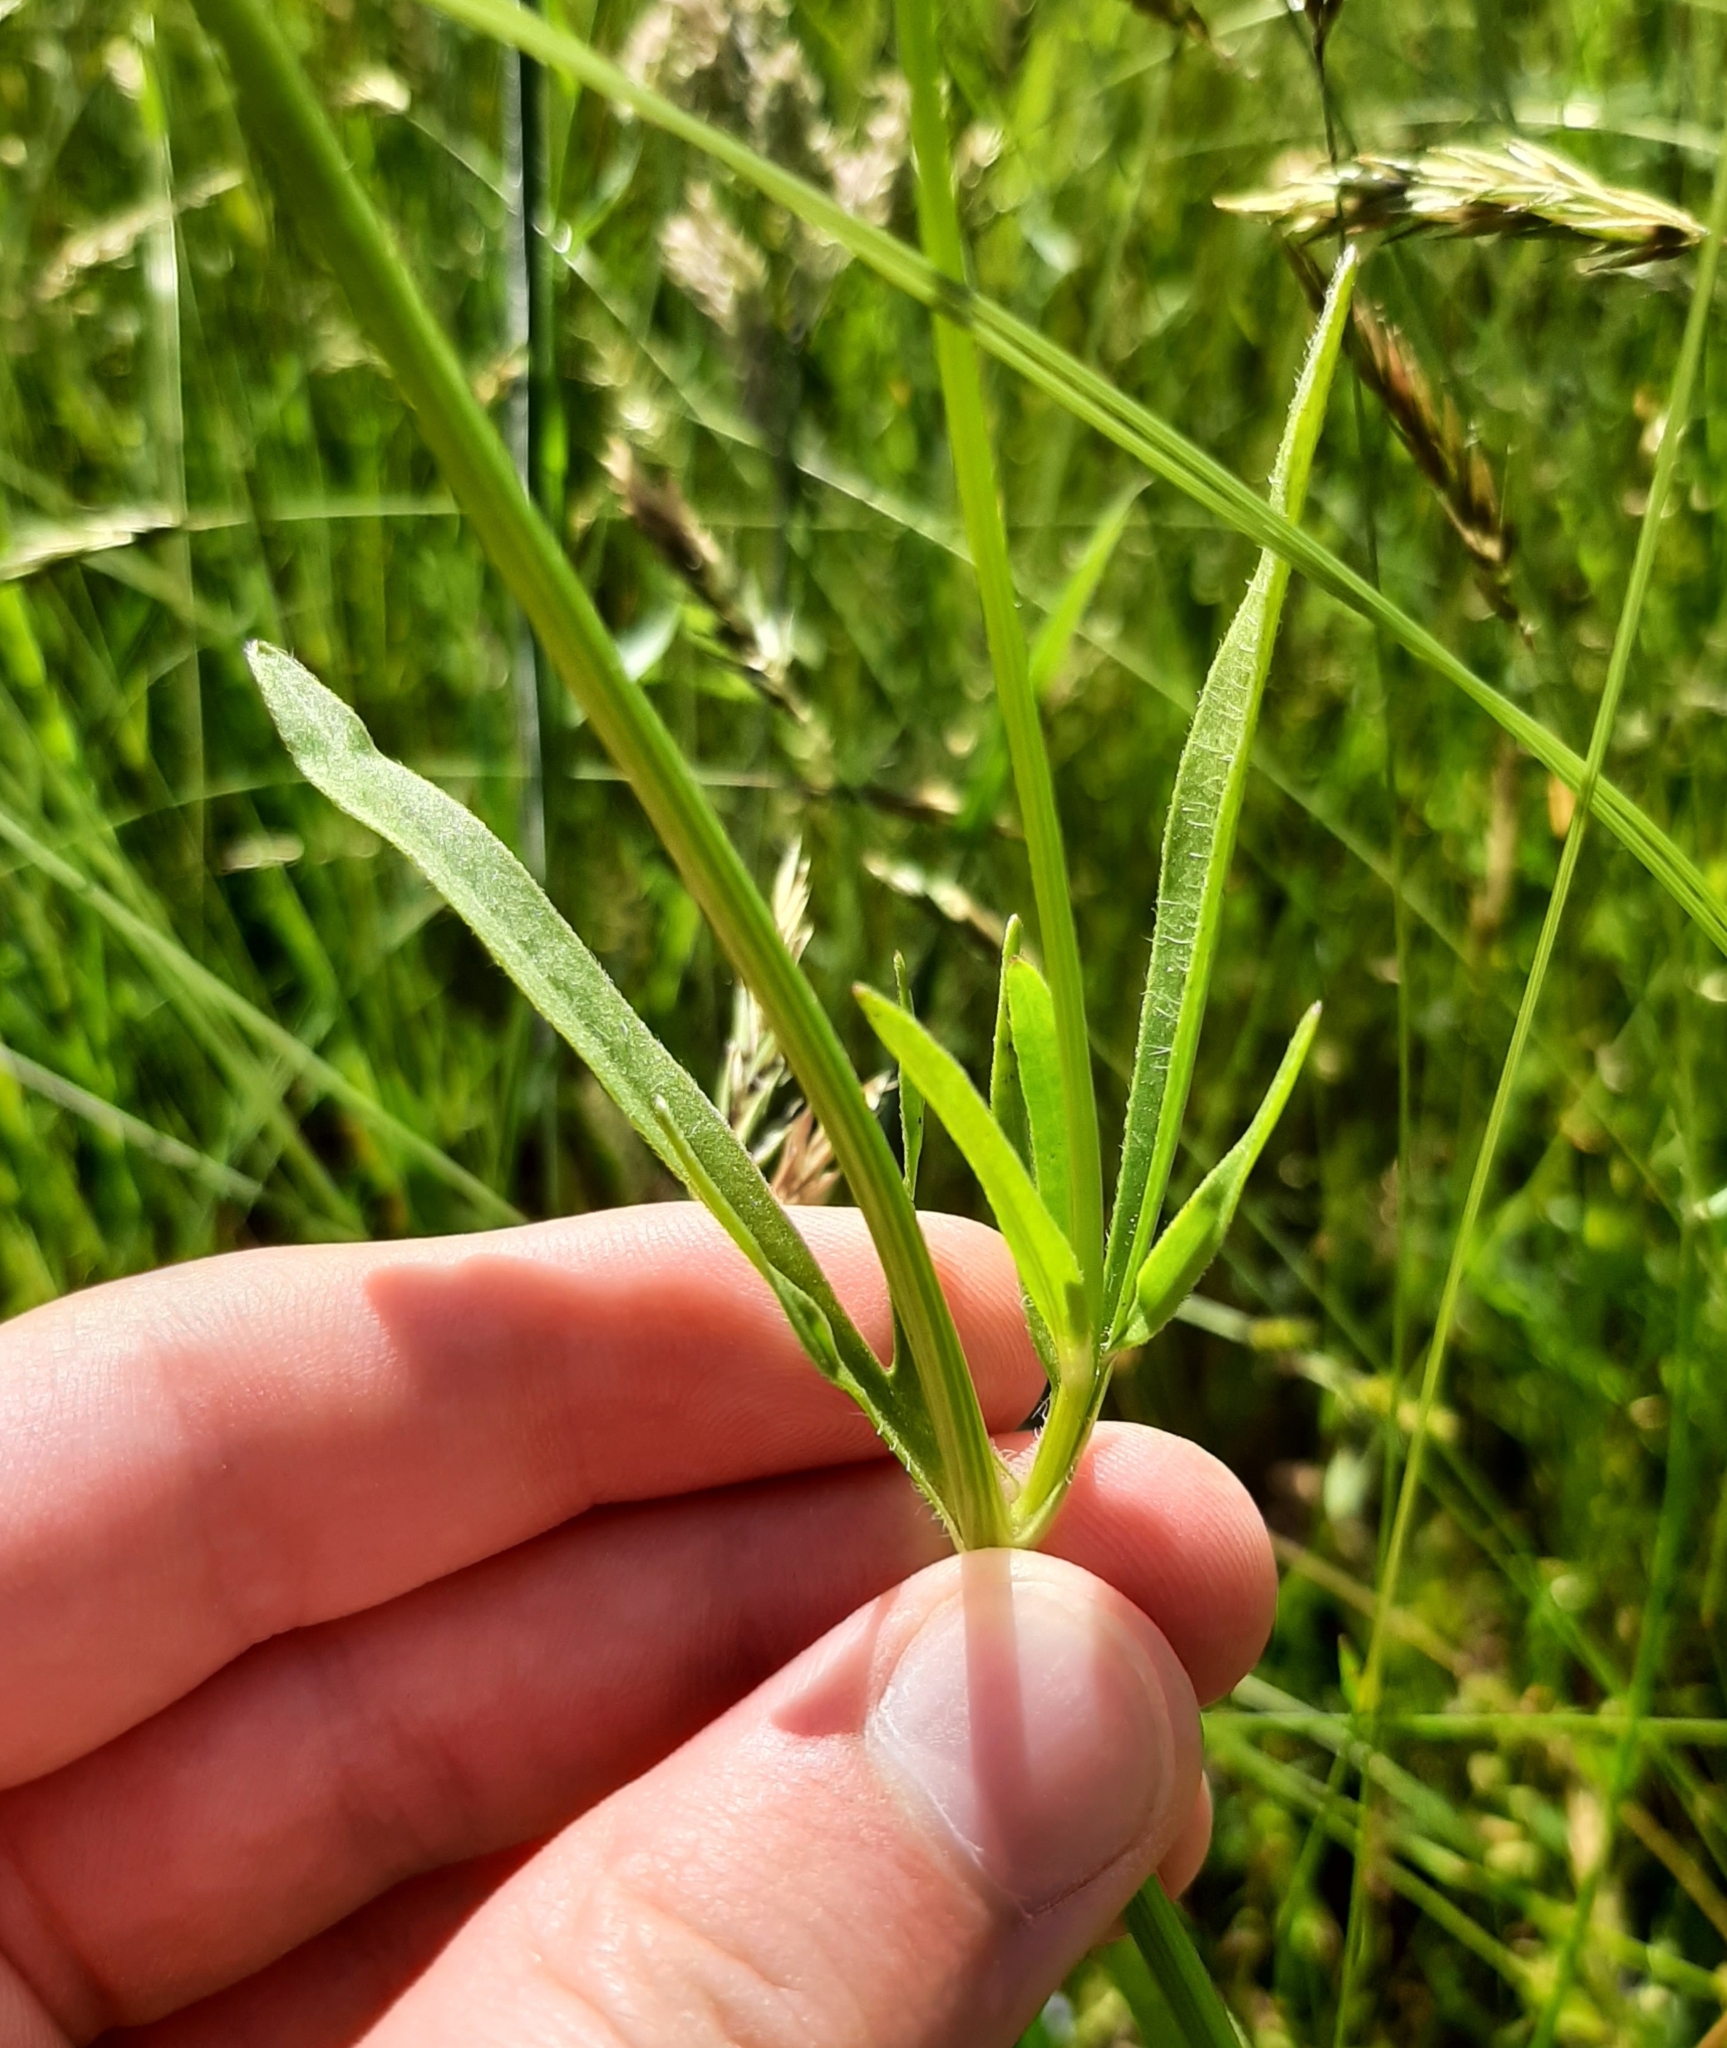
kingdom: Plantae
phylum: Tracheophyta
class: Magnoliopsida
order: Asterales
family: Asteraceae
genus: Coreopsis
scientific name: Coreopsis lanceolata
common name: Garden coreopsis
